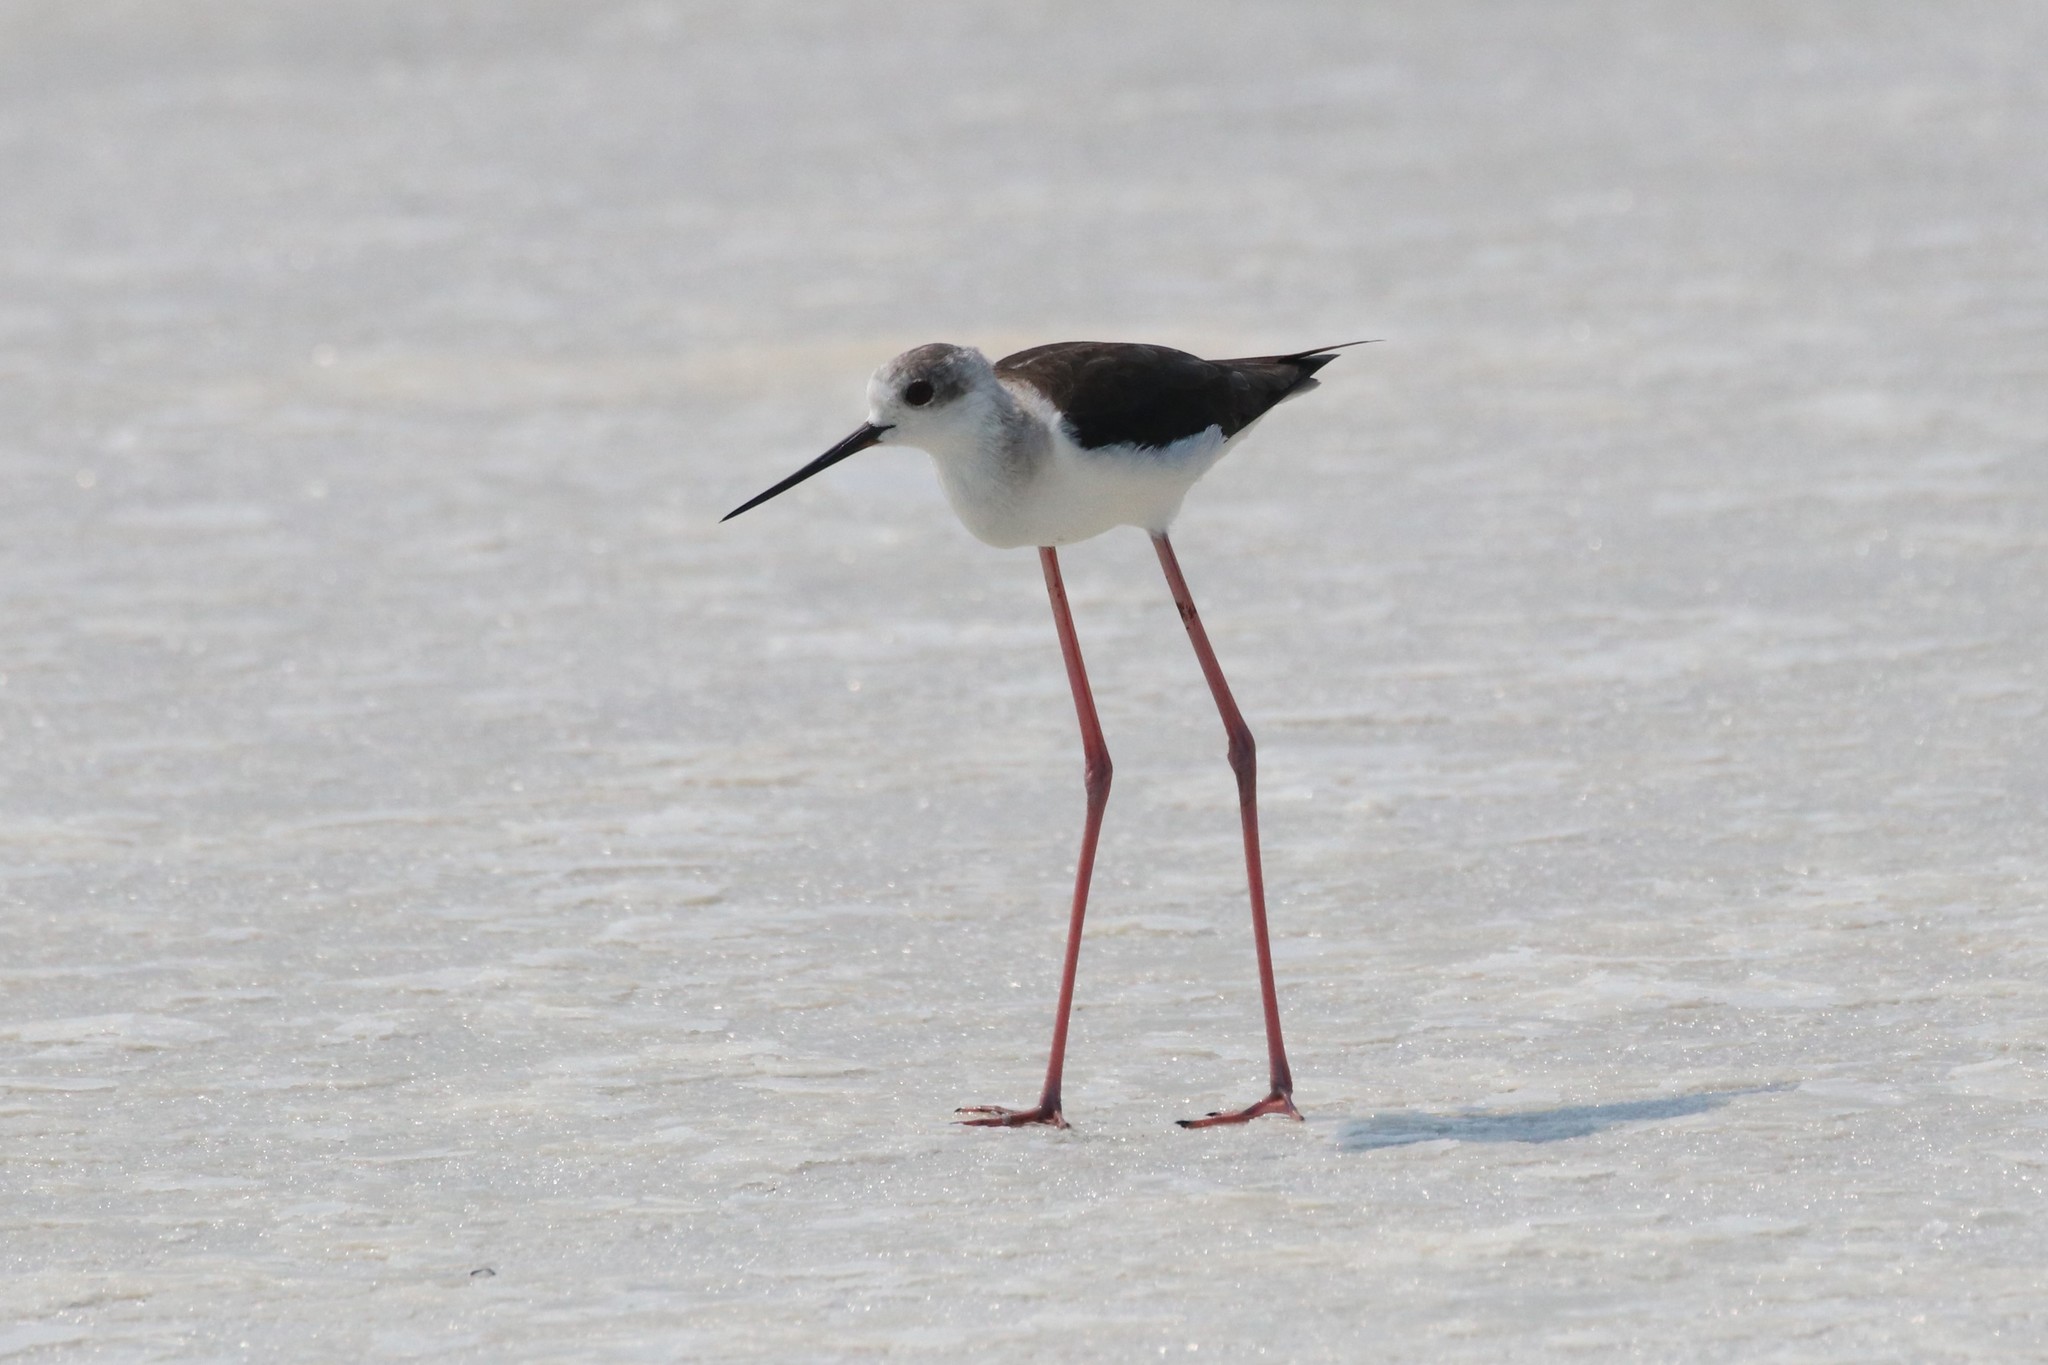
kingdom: Animalia
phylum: Chordata
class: Aves
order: Charadriiformes
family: Recurvirostridae
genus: Himantopus
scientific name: Himantopus himantopus
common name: Black-winged stilt
